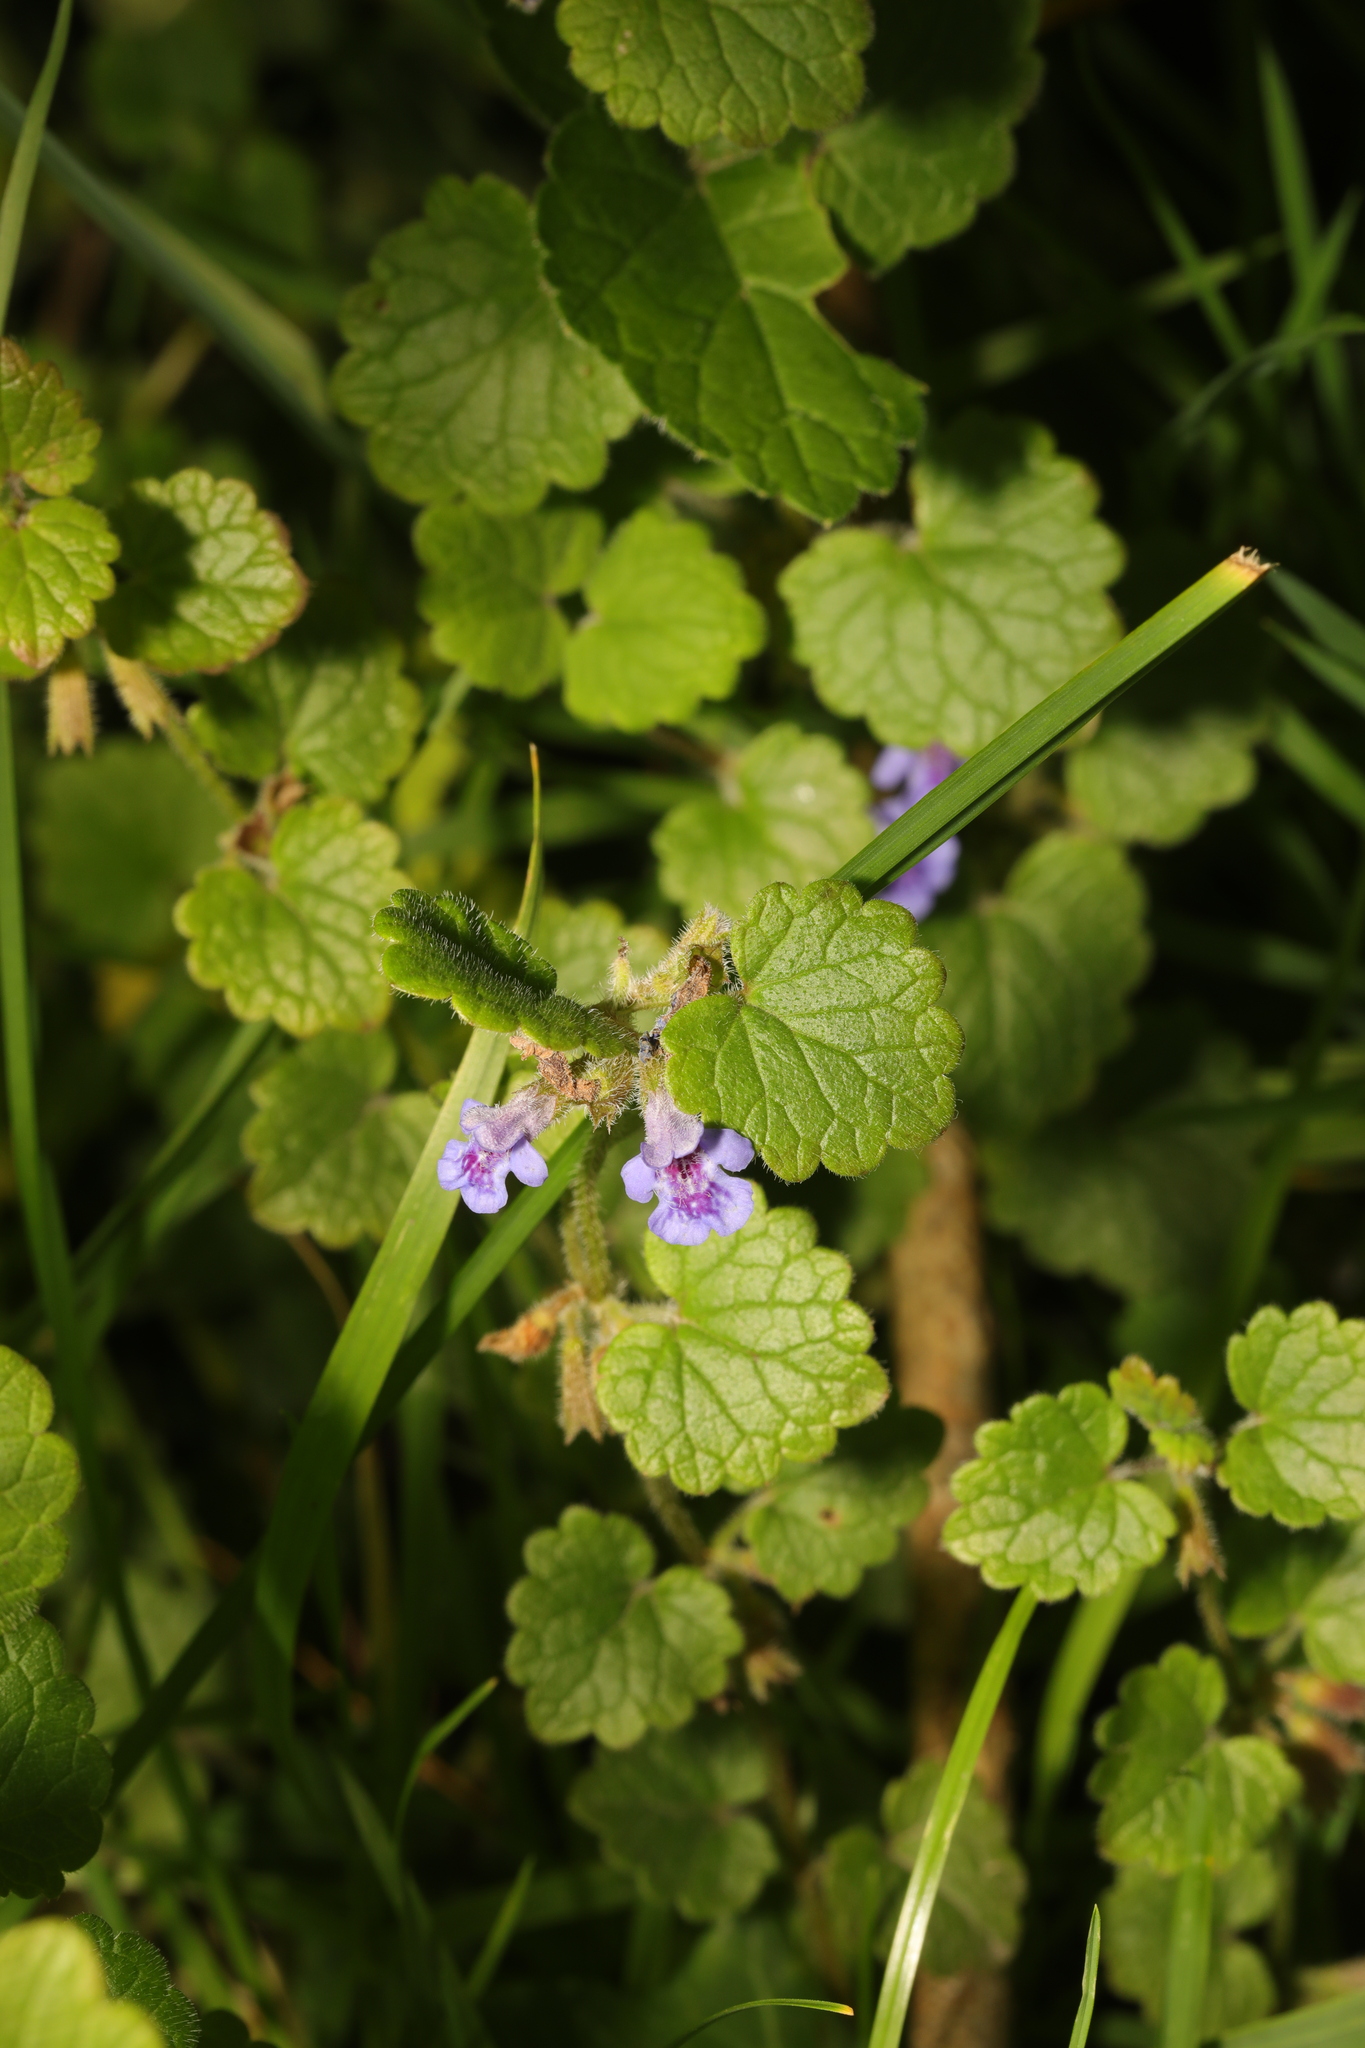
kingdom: Plantae
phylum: Tracheophyta
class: Magnoliopsida
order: Lamiales
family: Lamiaceae
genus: Glechoma
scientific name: Glechoma hederacea
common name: Ground ivy
